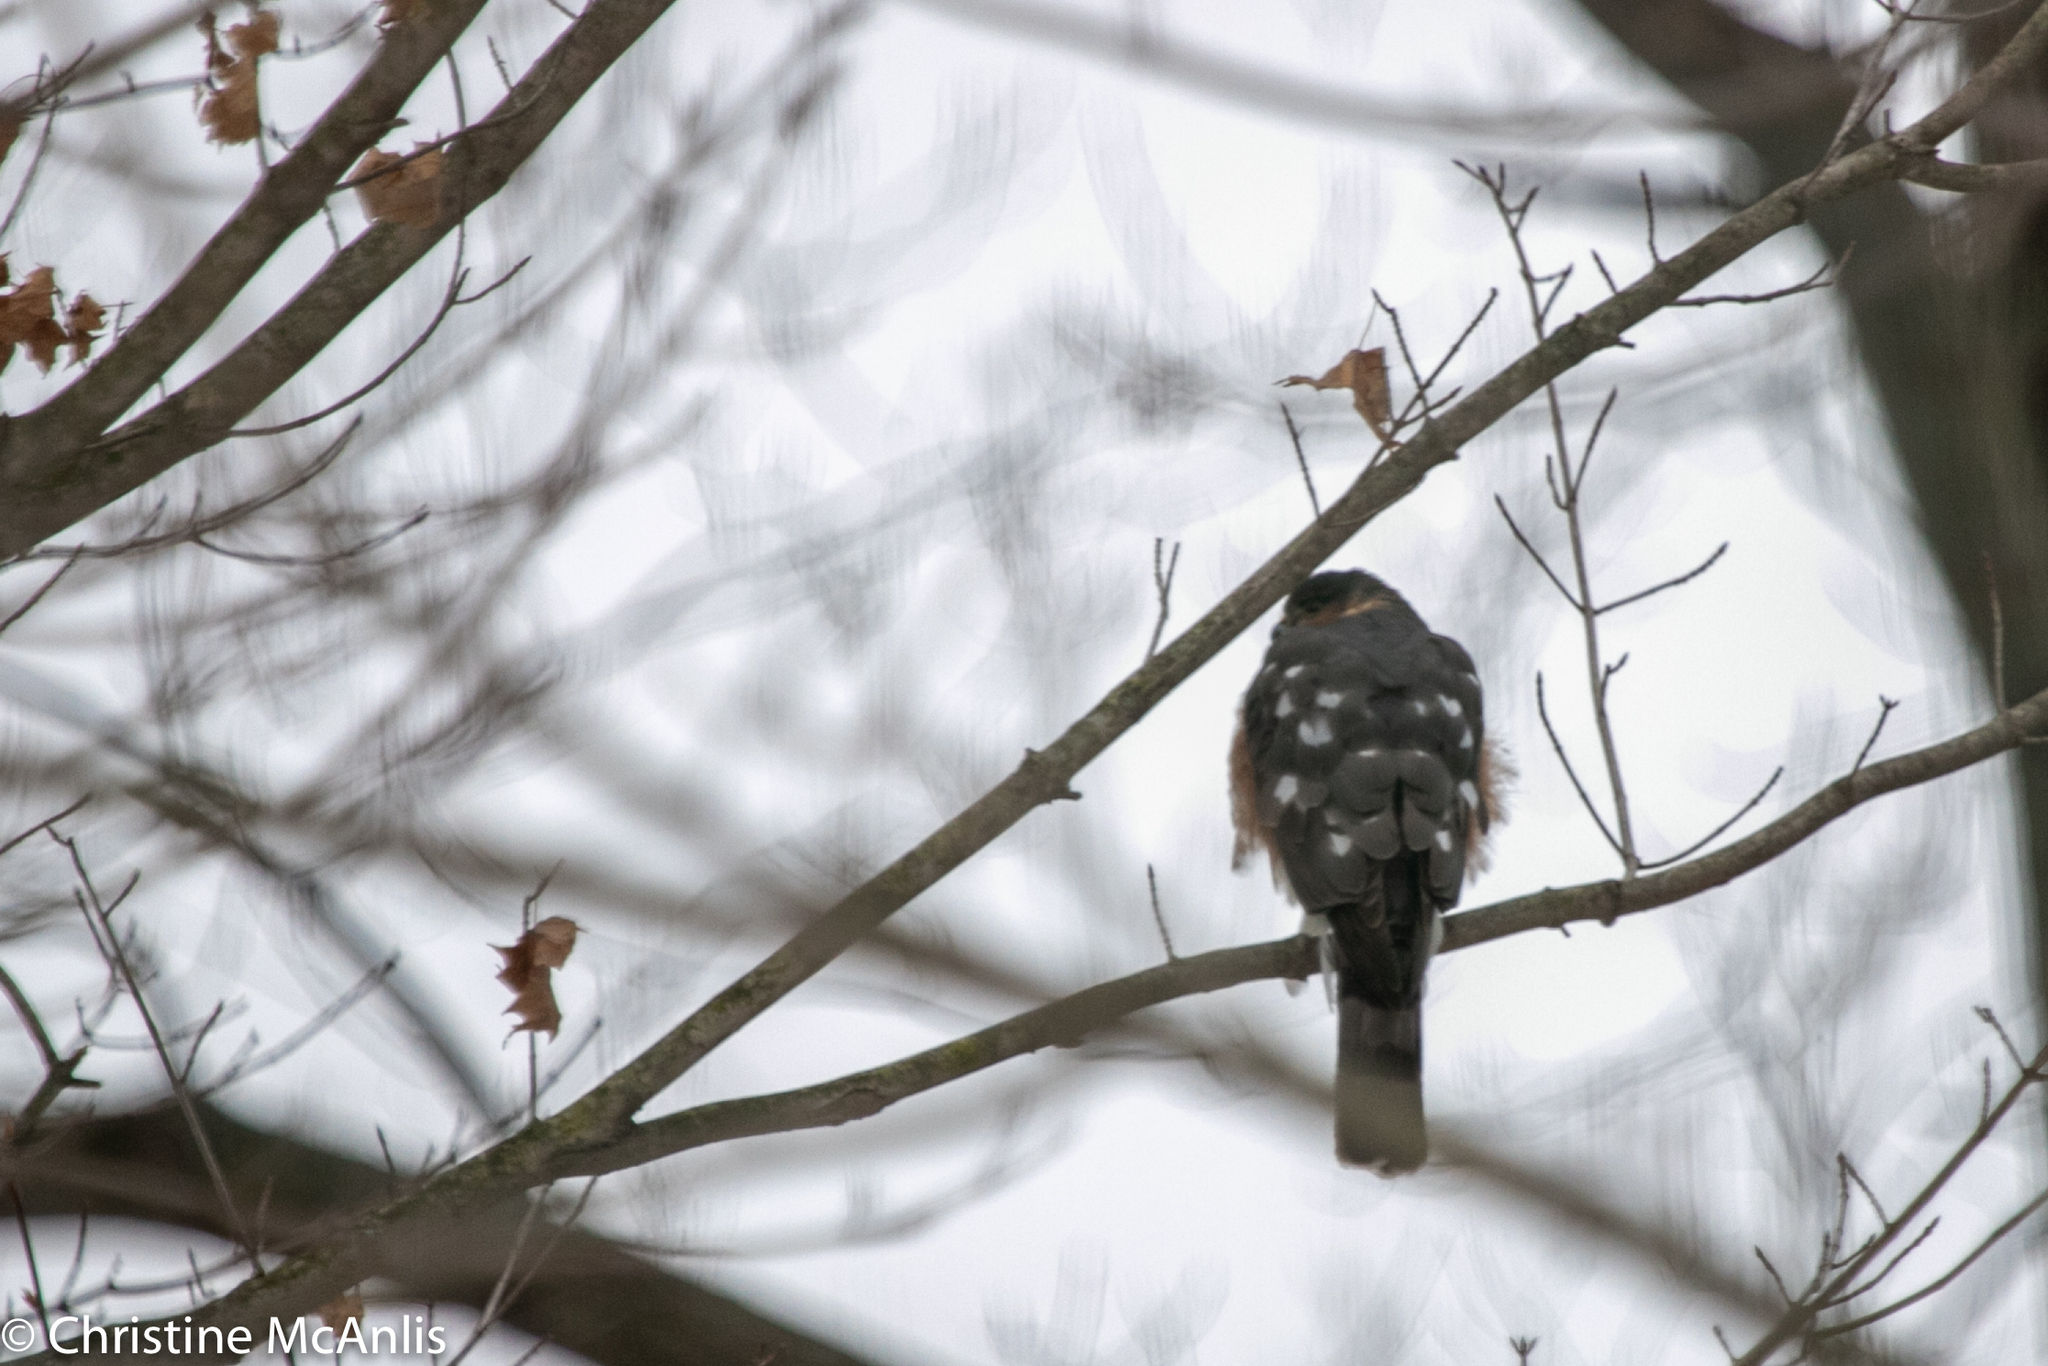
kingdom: Animalia
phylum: Chordata
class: Aves
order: Accipitriformes
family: Accipitridae
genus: Accipiter
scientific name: Accipiter striatus
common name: Sharp-shinned hawk
